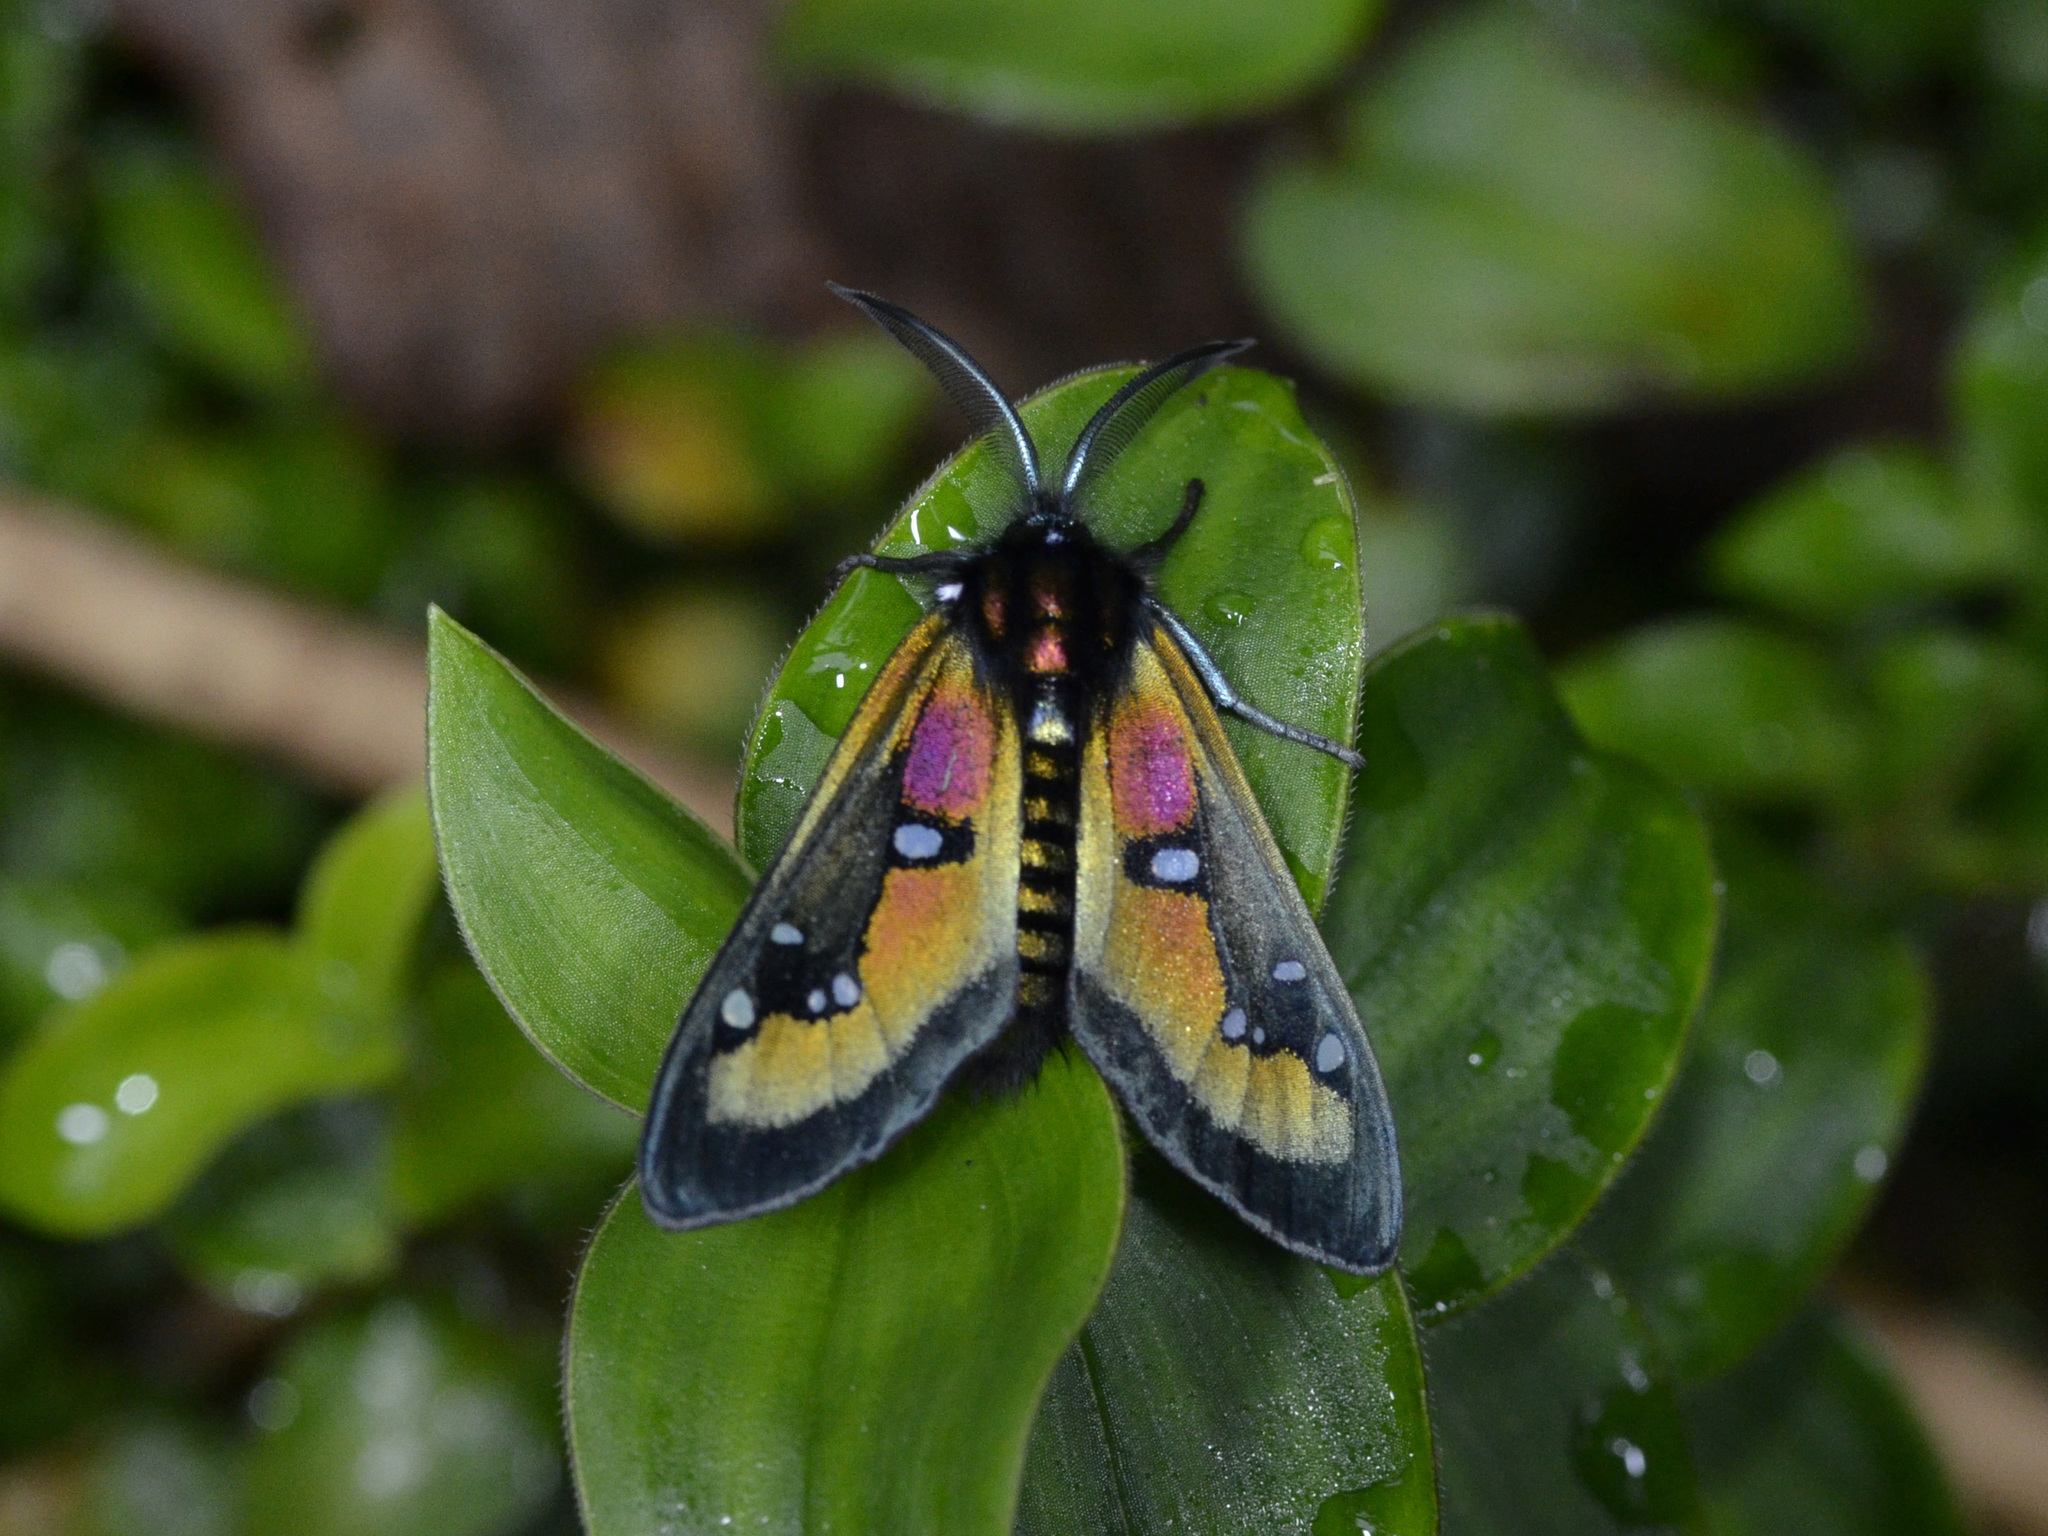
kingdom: Animalia
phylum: Arthropoda
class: Insecta
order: Lepidoptera
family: Erebidae
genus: Chrysocale
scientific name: Chrysocale regalis
